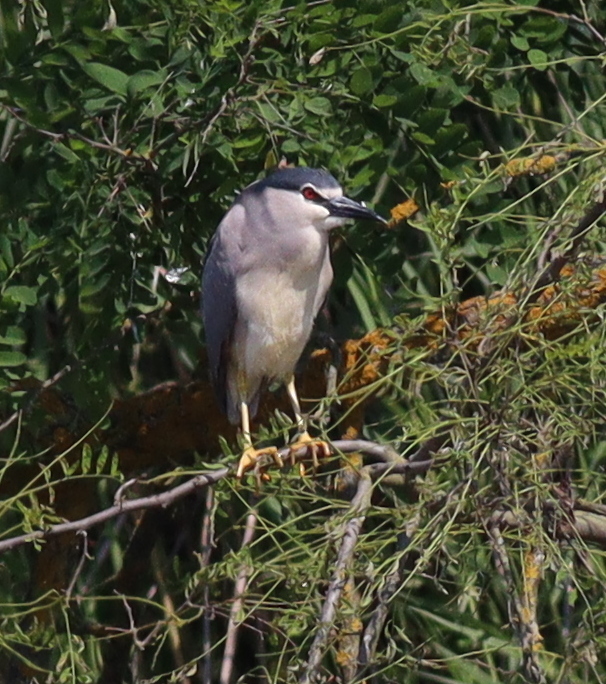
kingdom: Animalia
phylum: Chordata
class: Aves
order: Pelecaniformes
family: Ardeidae
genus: Nycticorax
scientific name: Nycticorax nycticorax
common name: Black-crowned night heron
